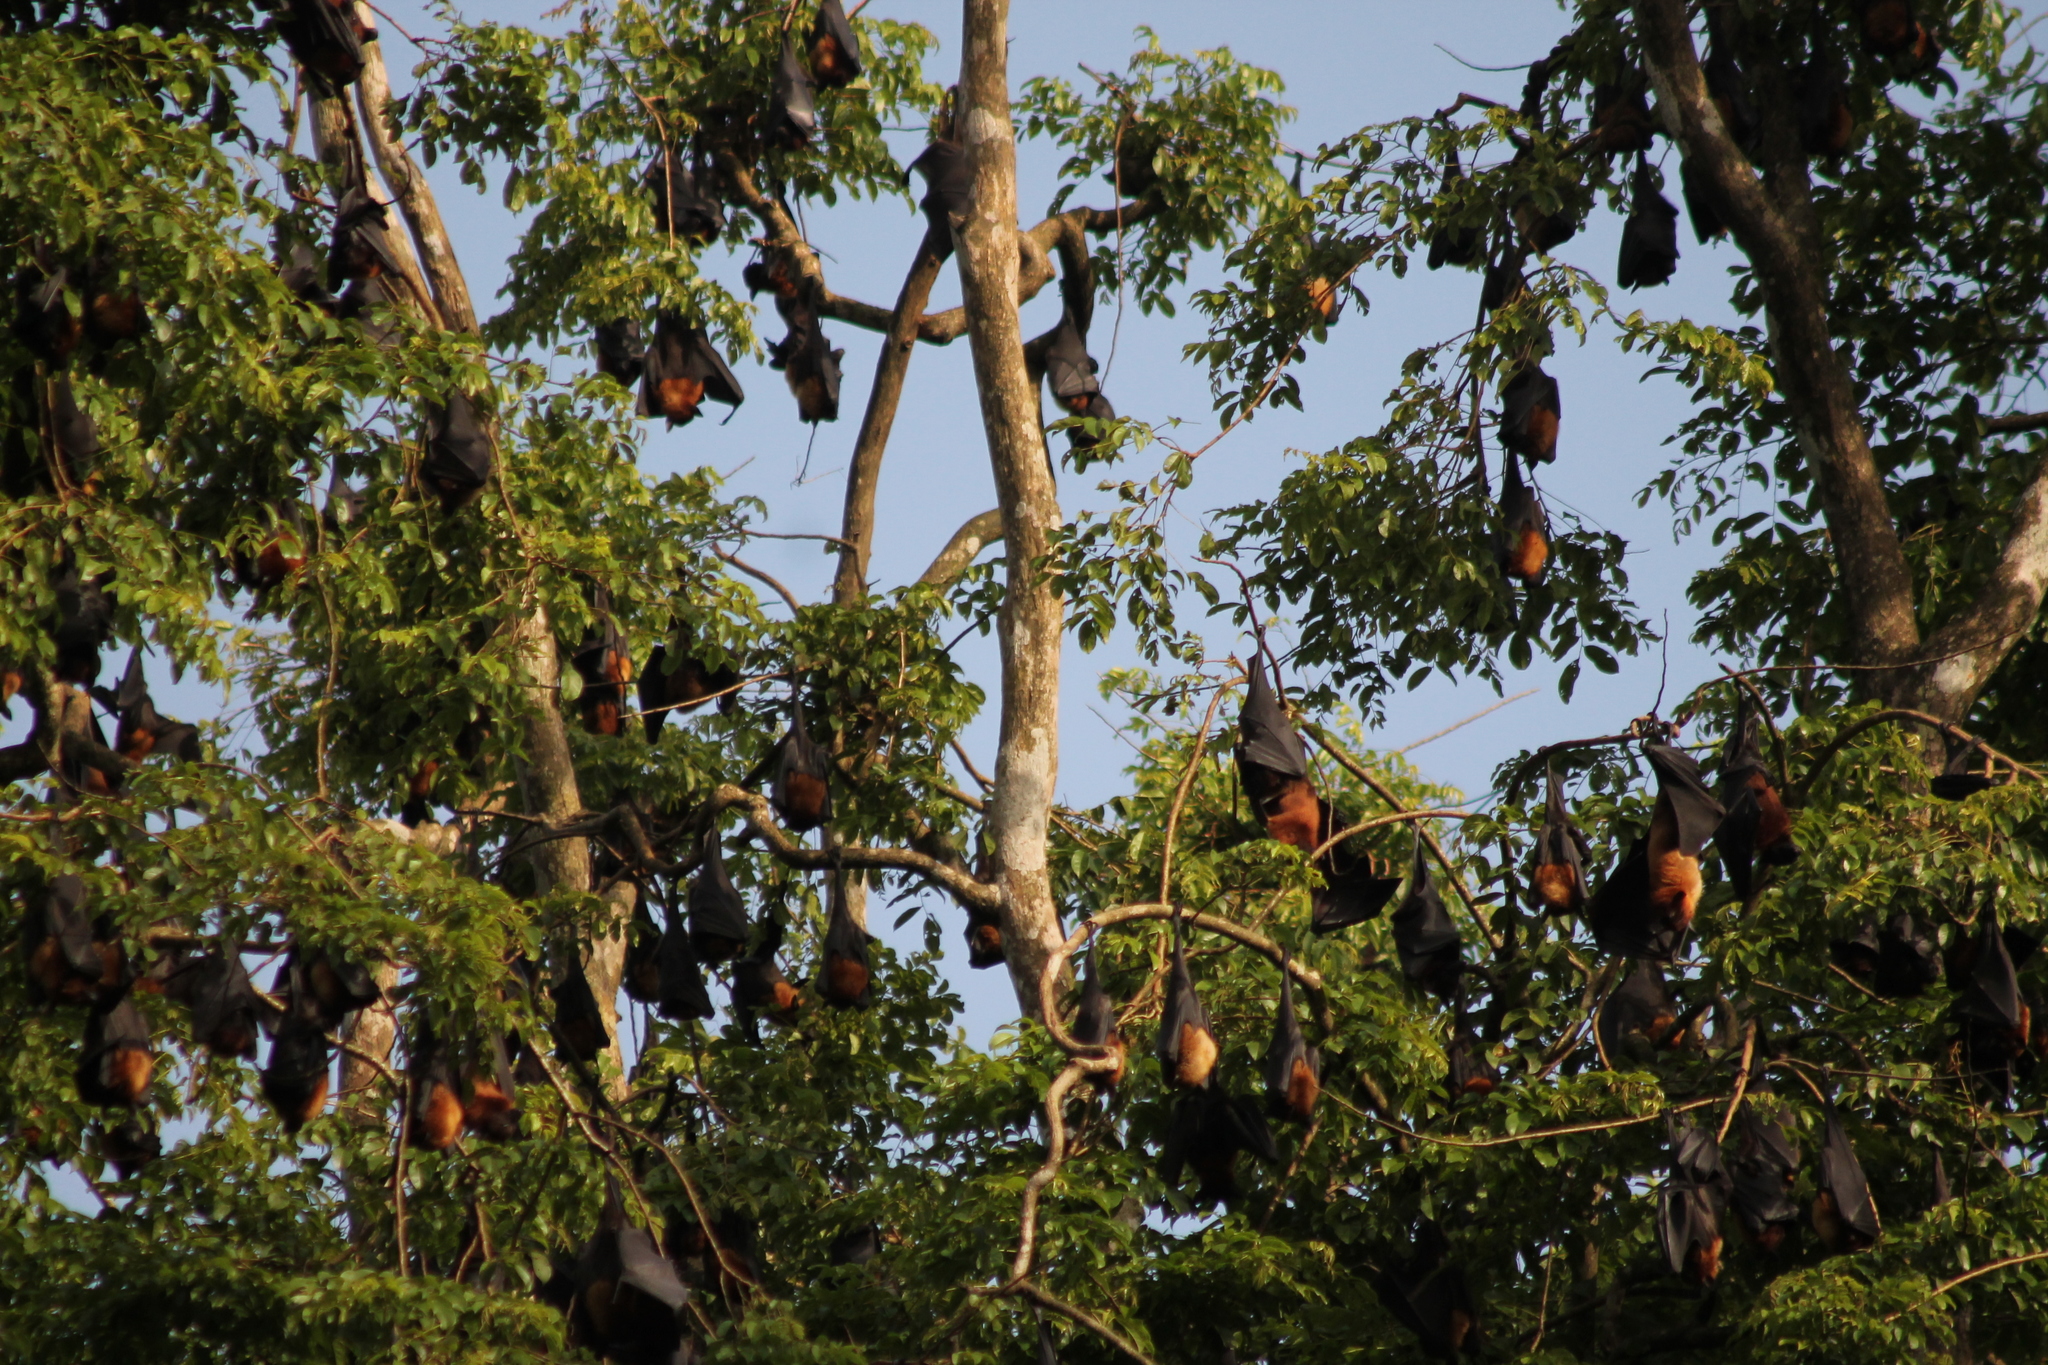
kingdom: Animalia
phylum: Chordata
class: Mammalia
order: Chiroptera
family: Pteropodidae
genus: Pteropus
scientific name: Pteropus vampyrus
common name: Large flying fox
